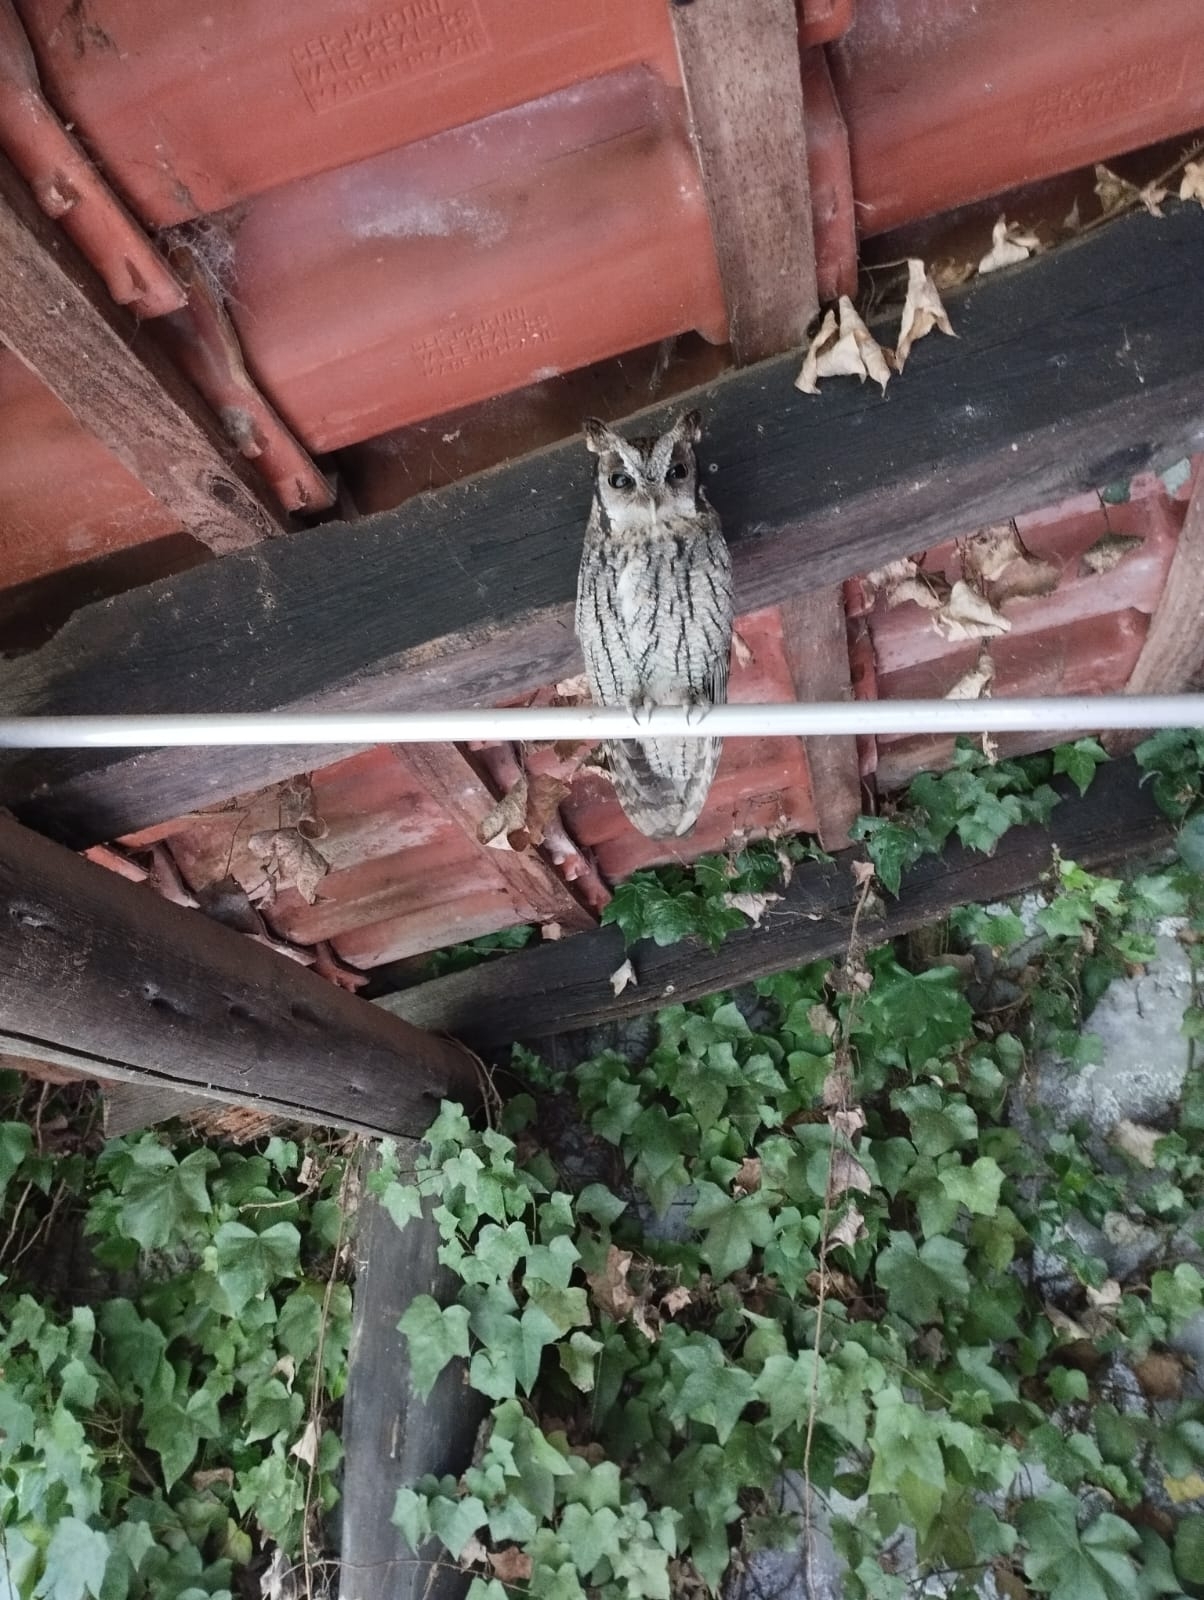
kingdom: Animalia
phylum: Chordata
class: Aves
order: Strigiformes
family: Strigidae
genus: Megascops
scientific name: Megascops choliba
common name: Tropical screech-owl
